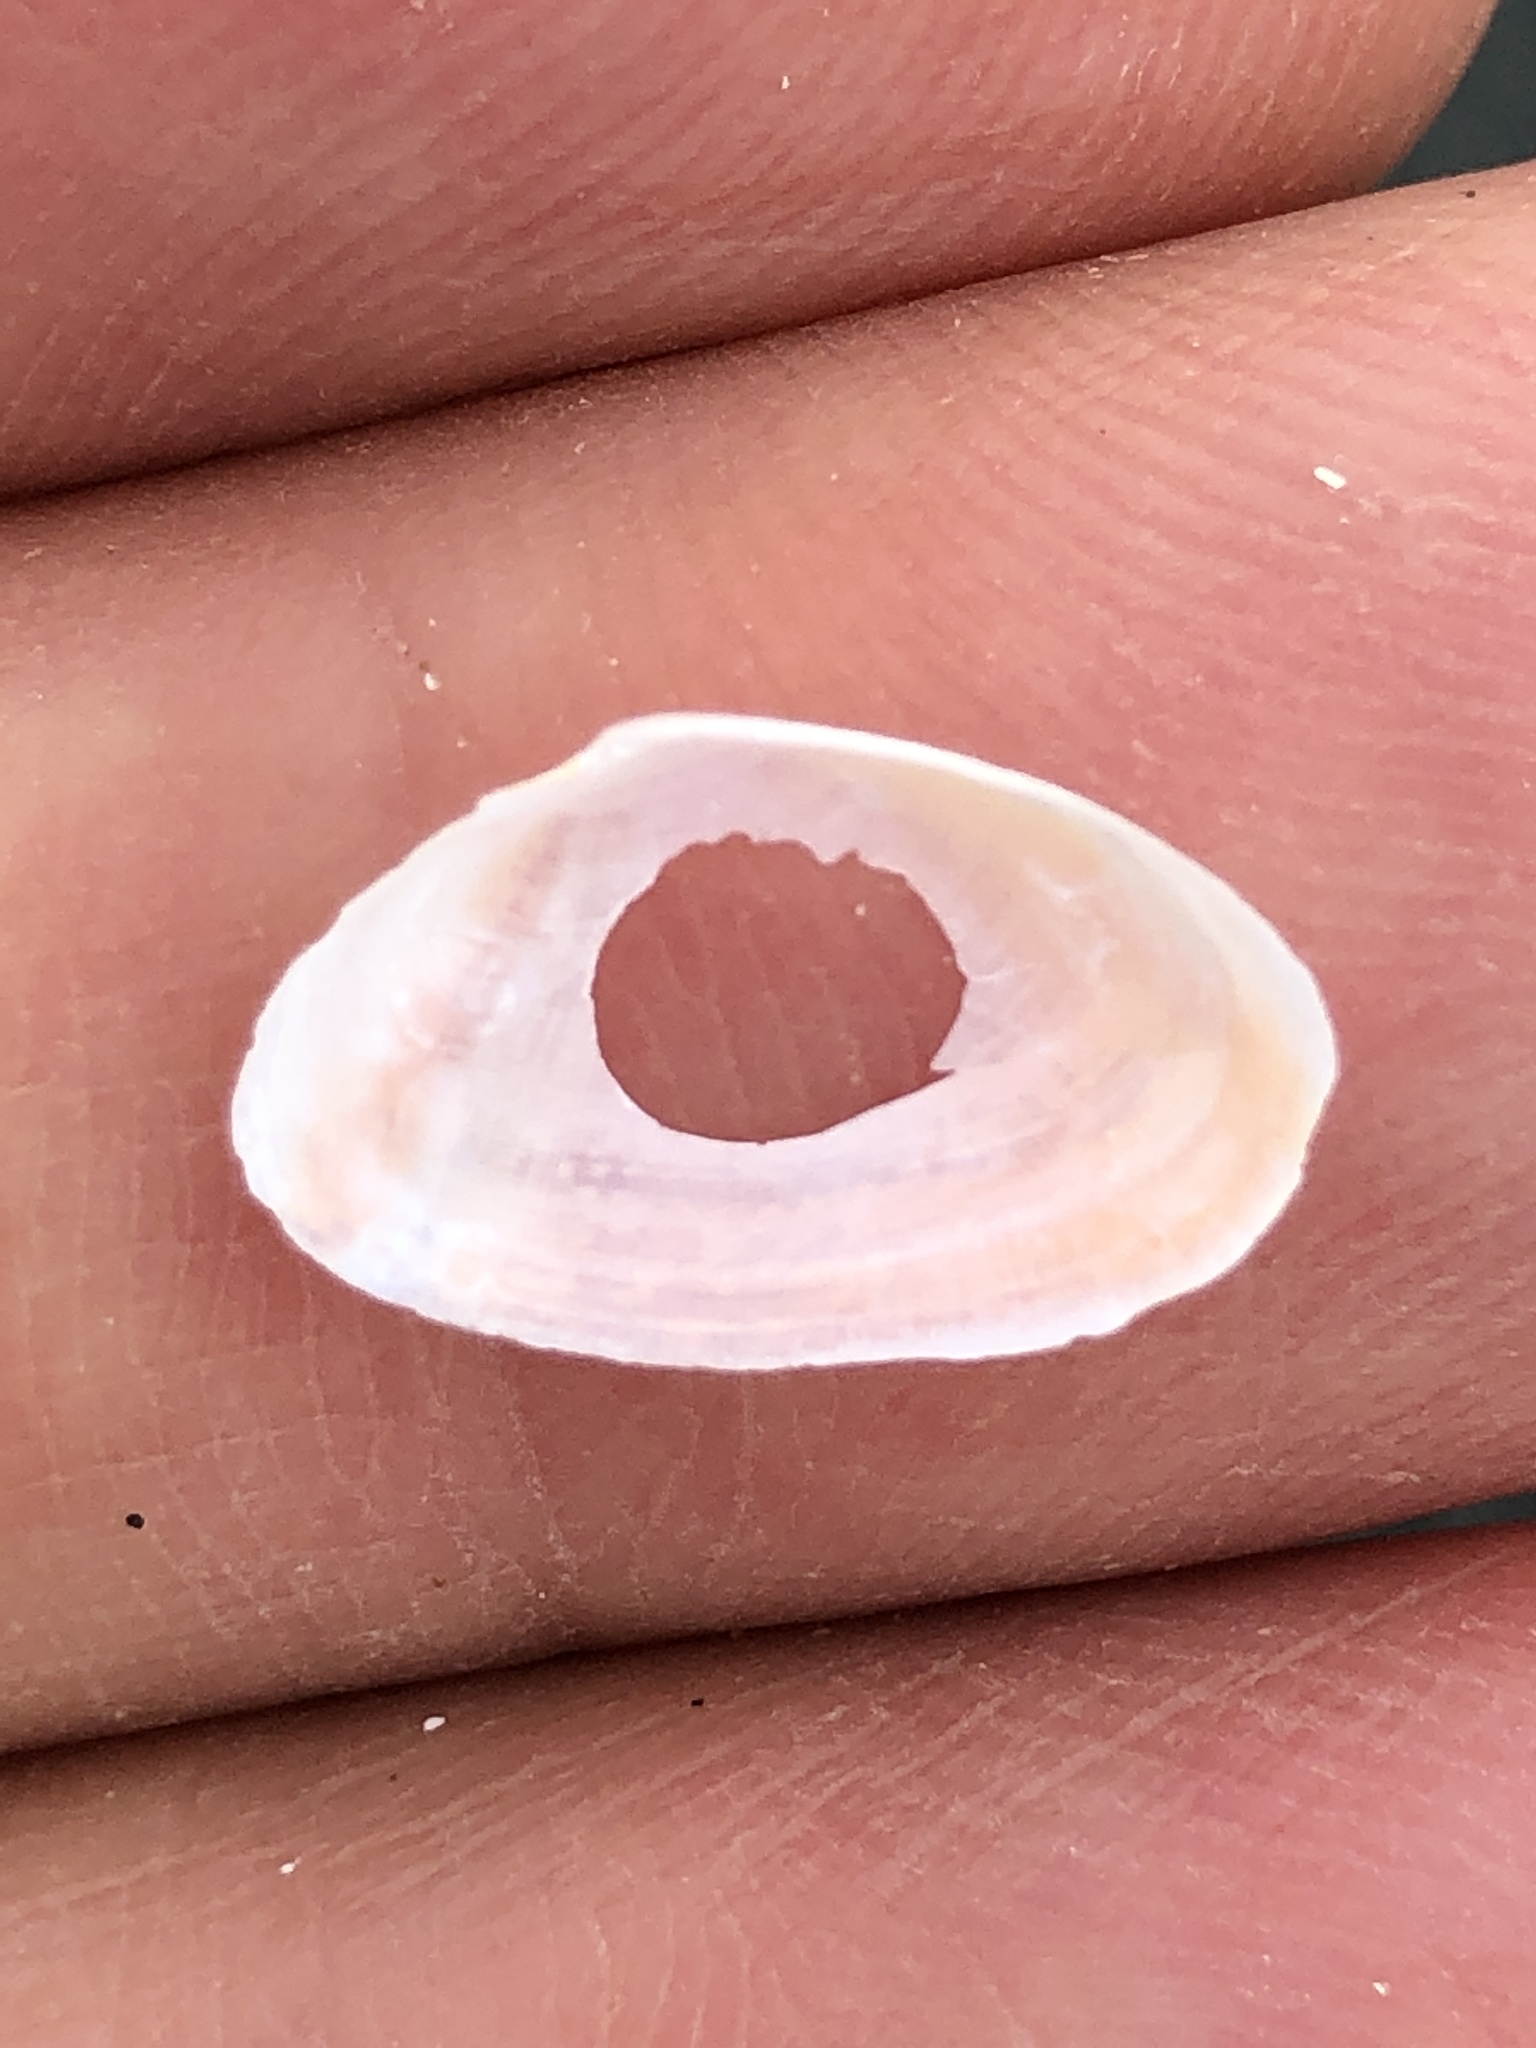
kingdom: Animalia
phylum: Mollusca
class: Bivalvia
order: Cardiida
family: Tellinidae
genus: Eurytellina
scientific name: Eurytellina lineata
